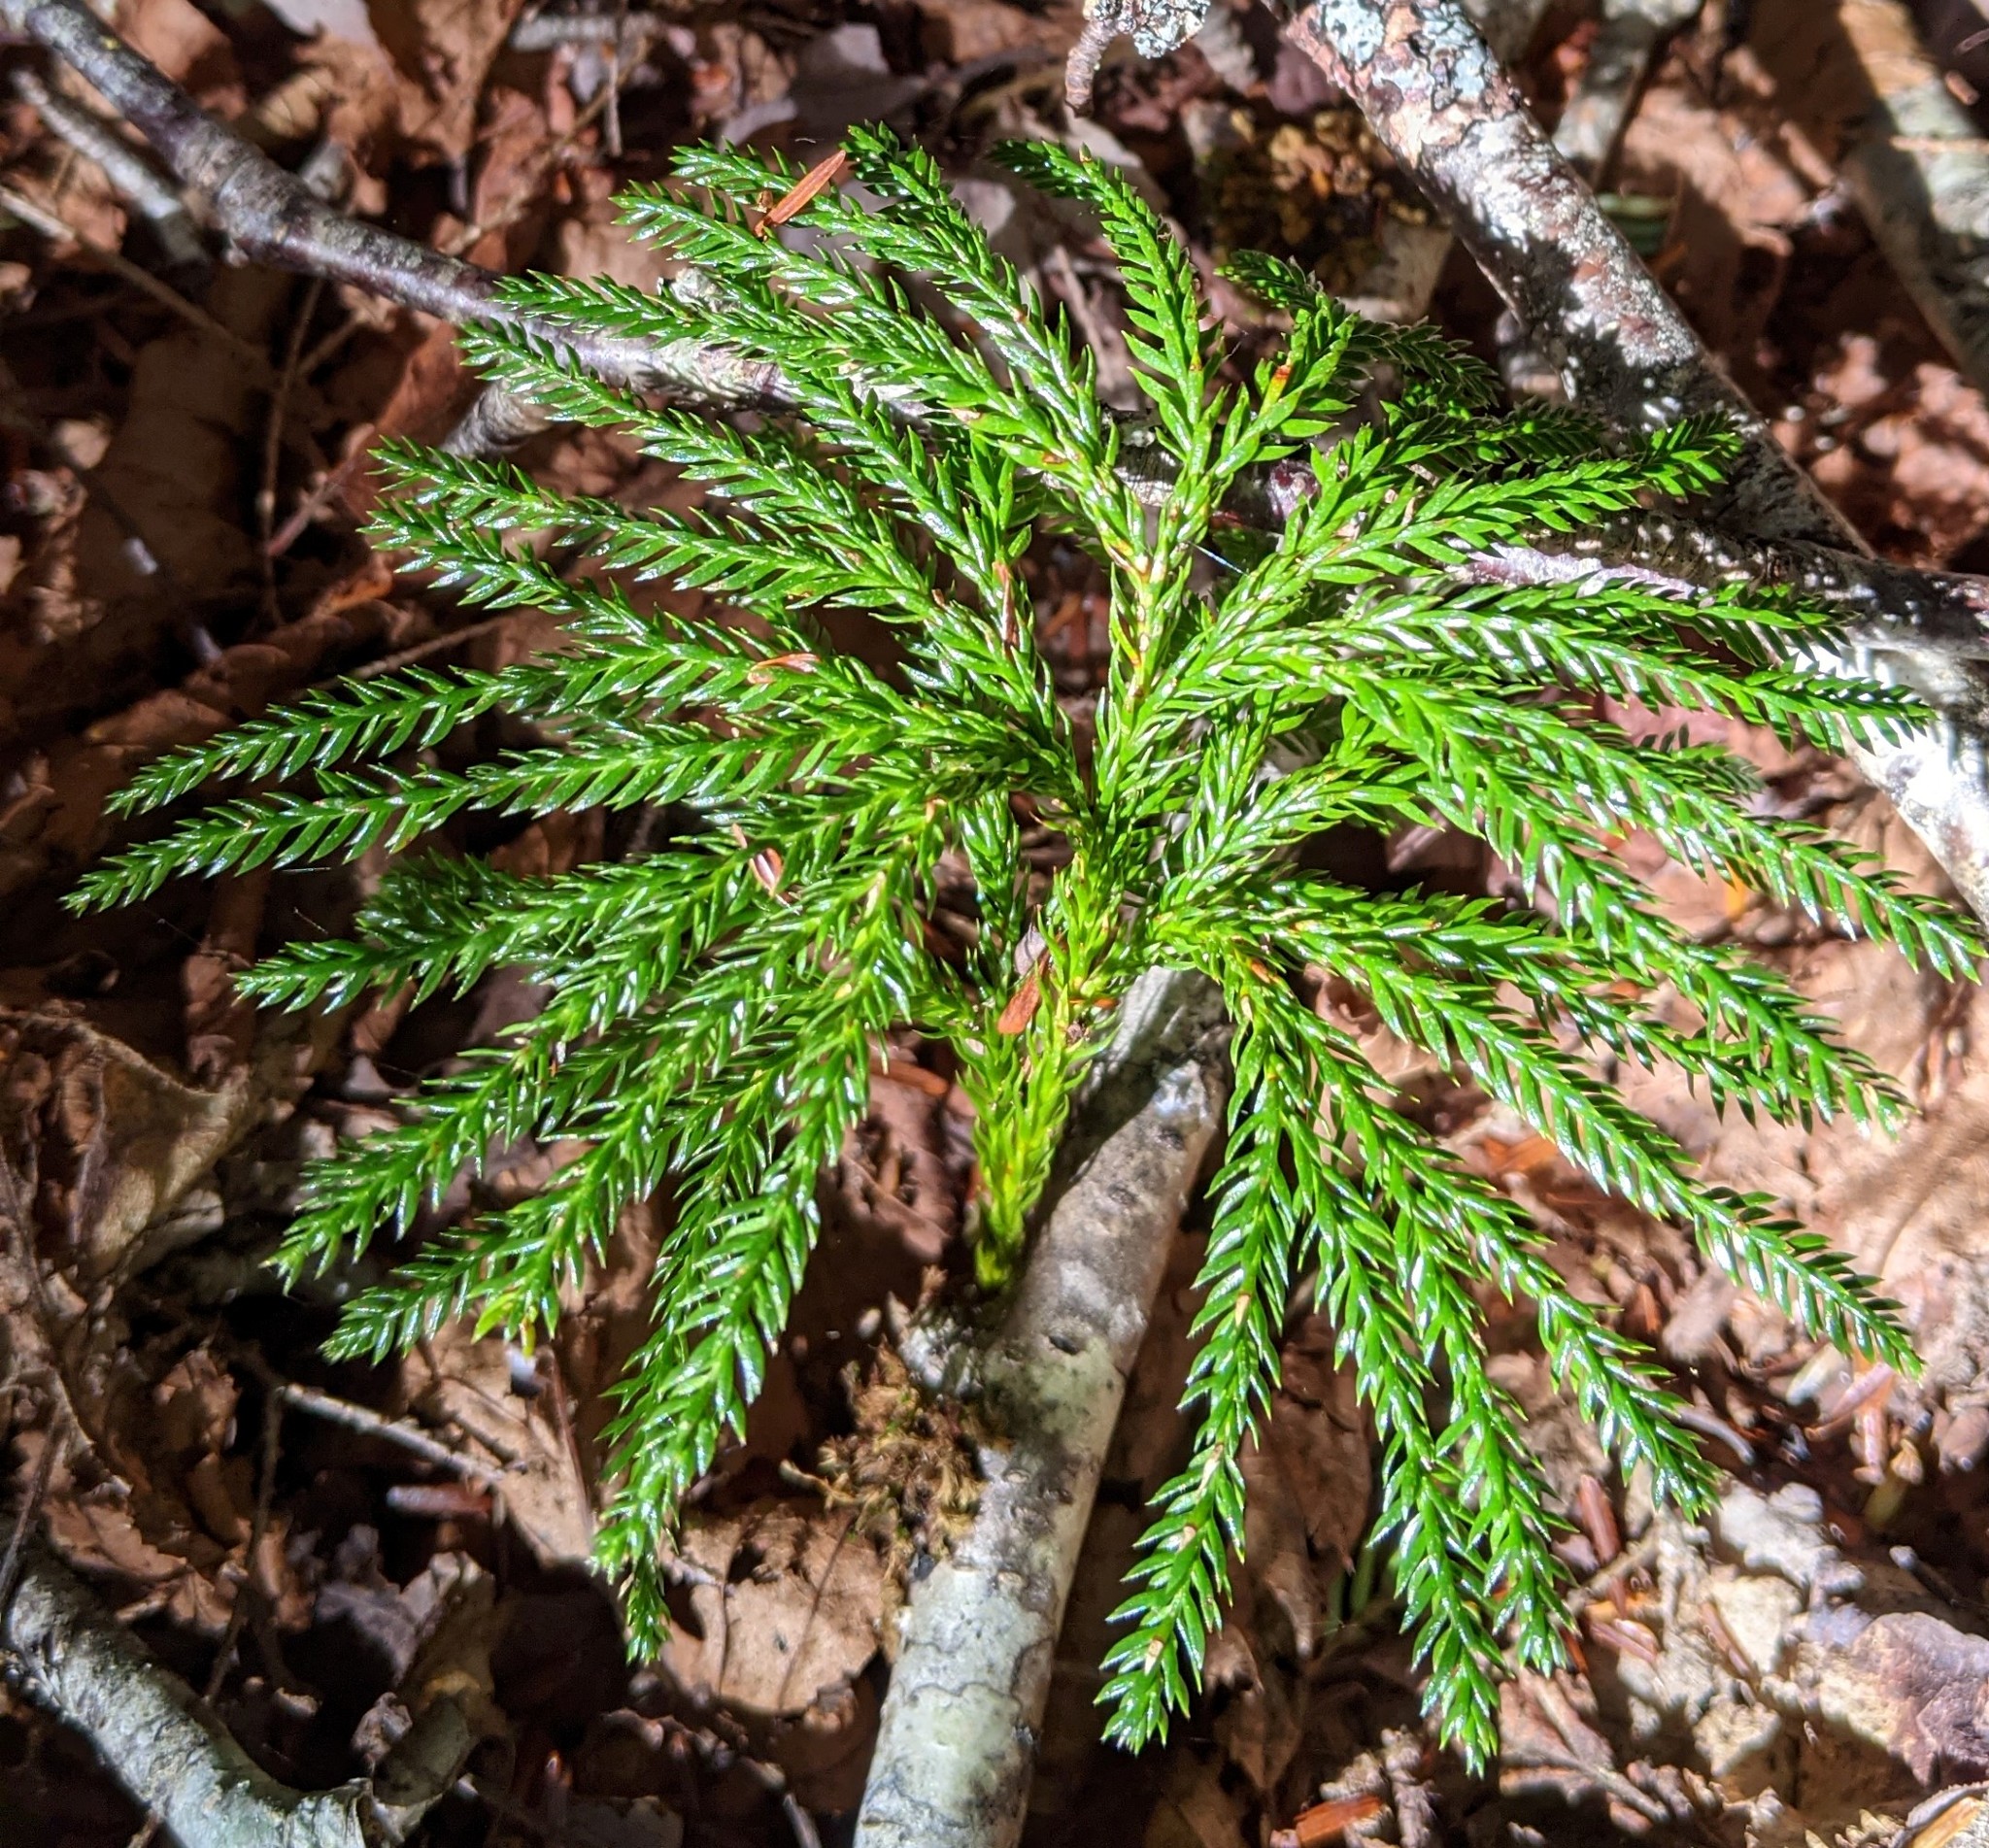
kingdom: Plantae
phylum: Tracheophyta
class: Lycopodiopsida
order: Lycopodiales
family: Lycopodiaceae
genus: Dendrolycopodium
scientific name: Dendrolycopodium obscurum
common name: Common ground-pine
